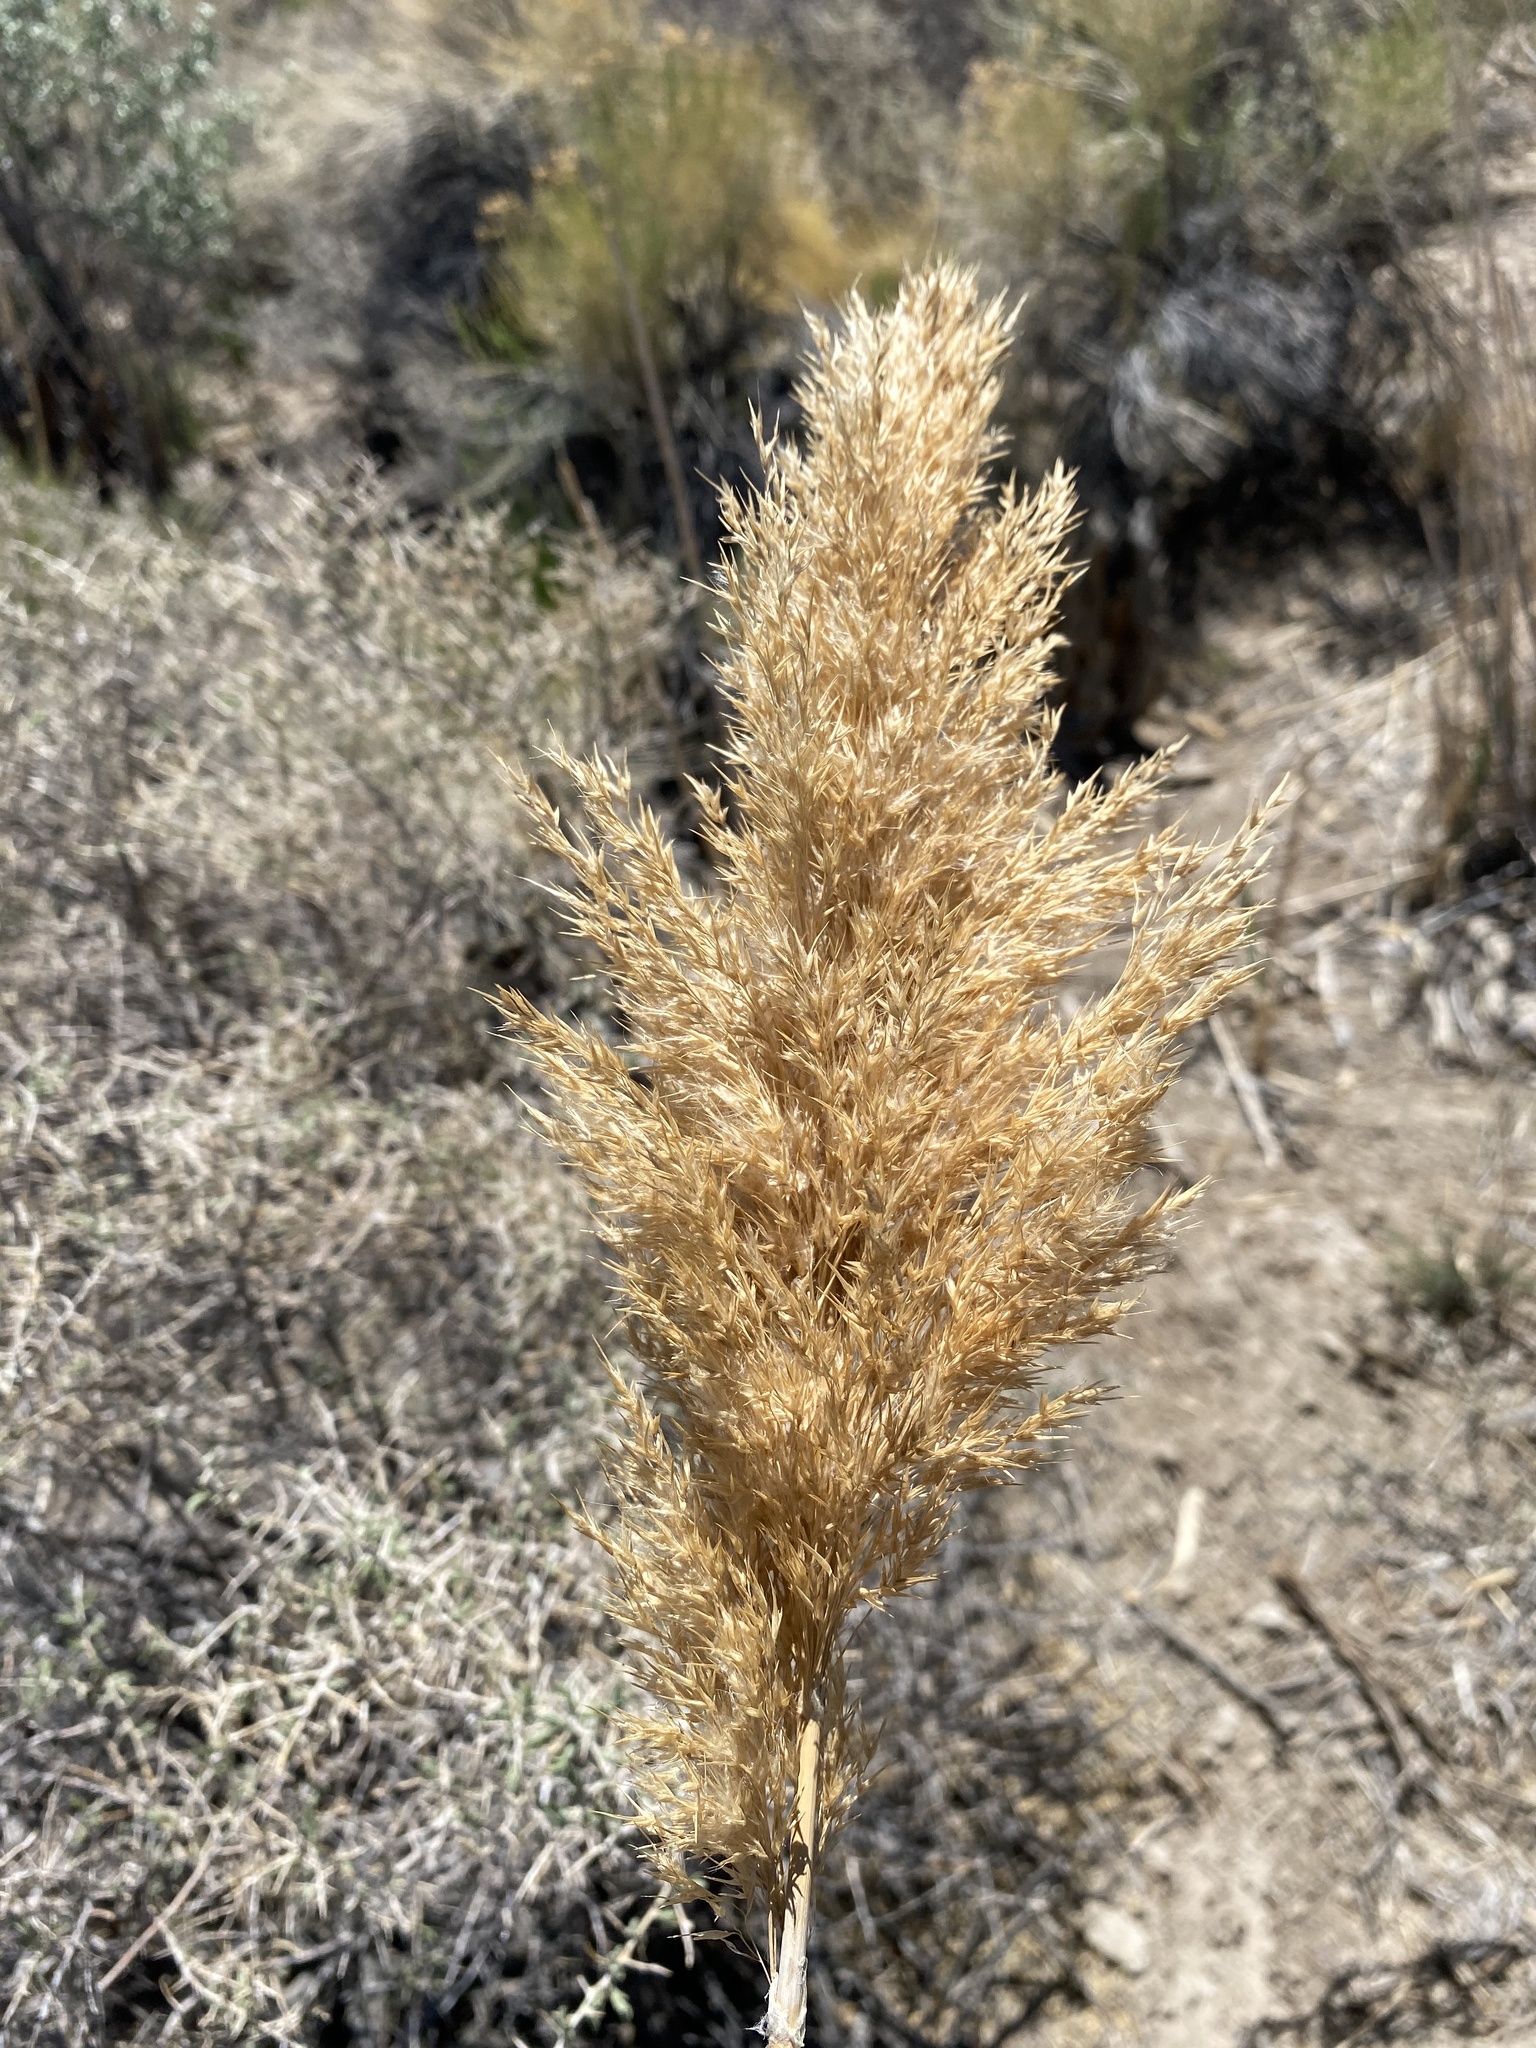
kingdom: Plantae
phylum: Tracheophyta
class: Liliopsida
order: Poales
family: Poaceae
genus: Phragmites
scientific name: Phragmites australis
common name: Common reed
